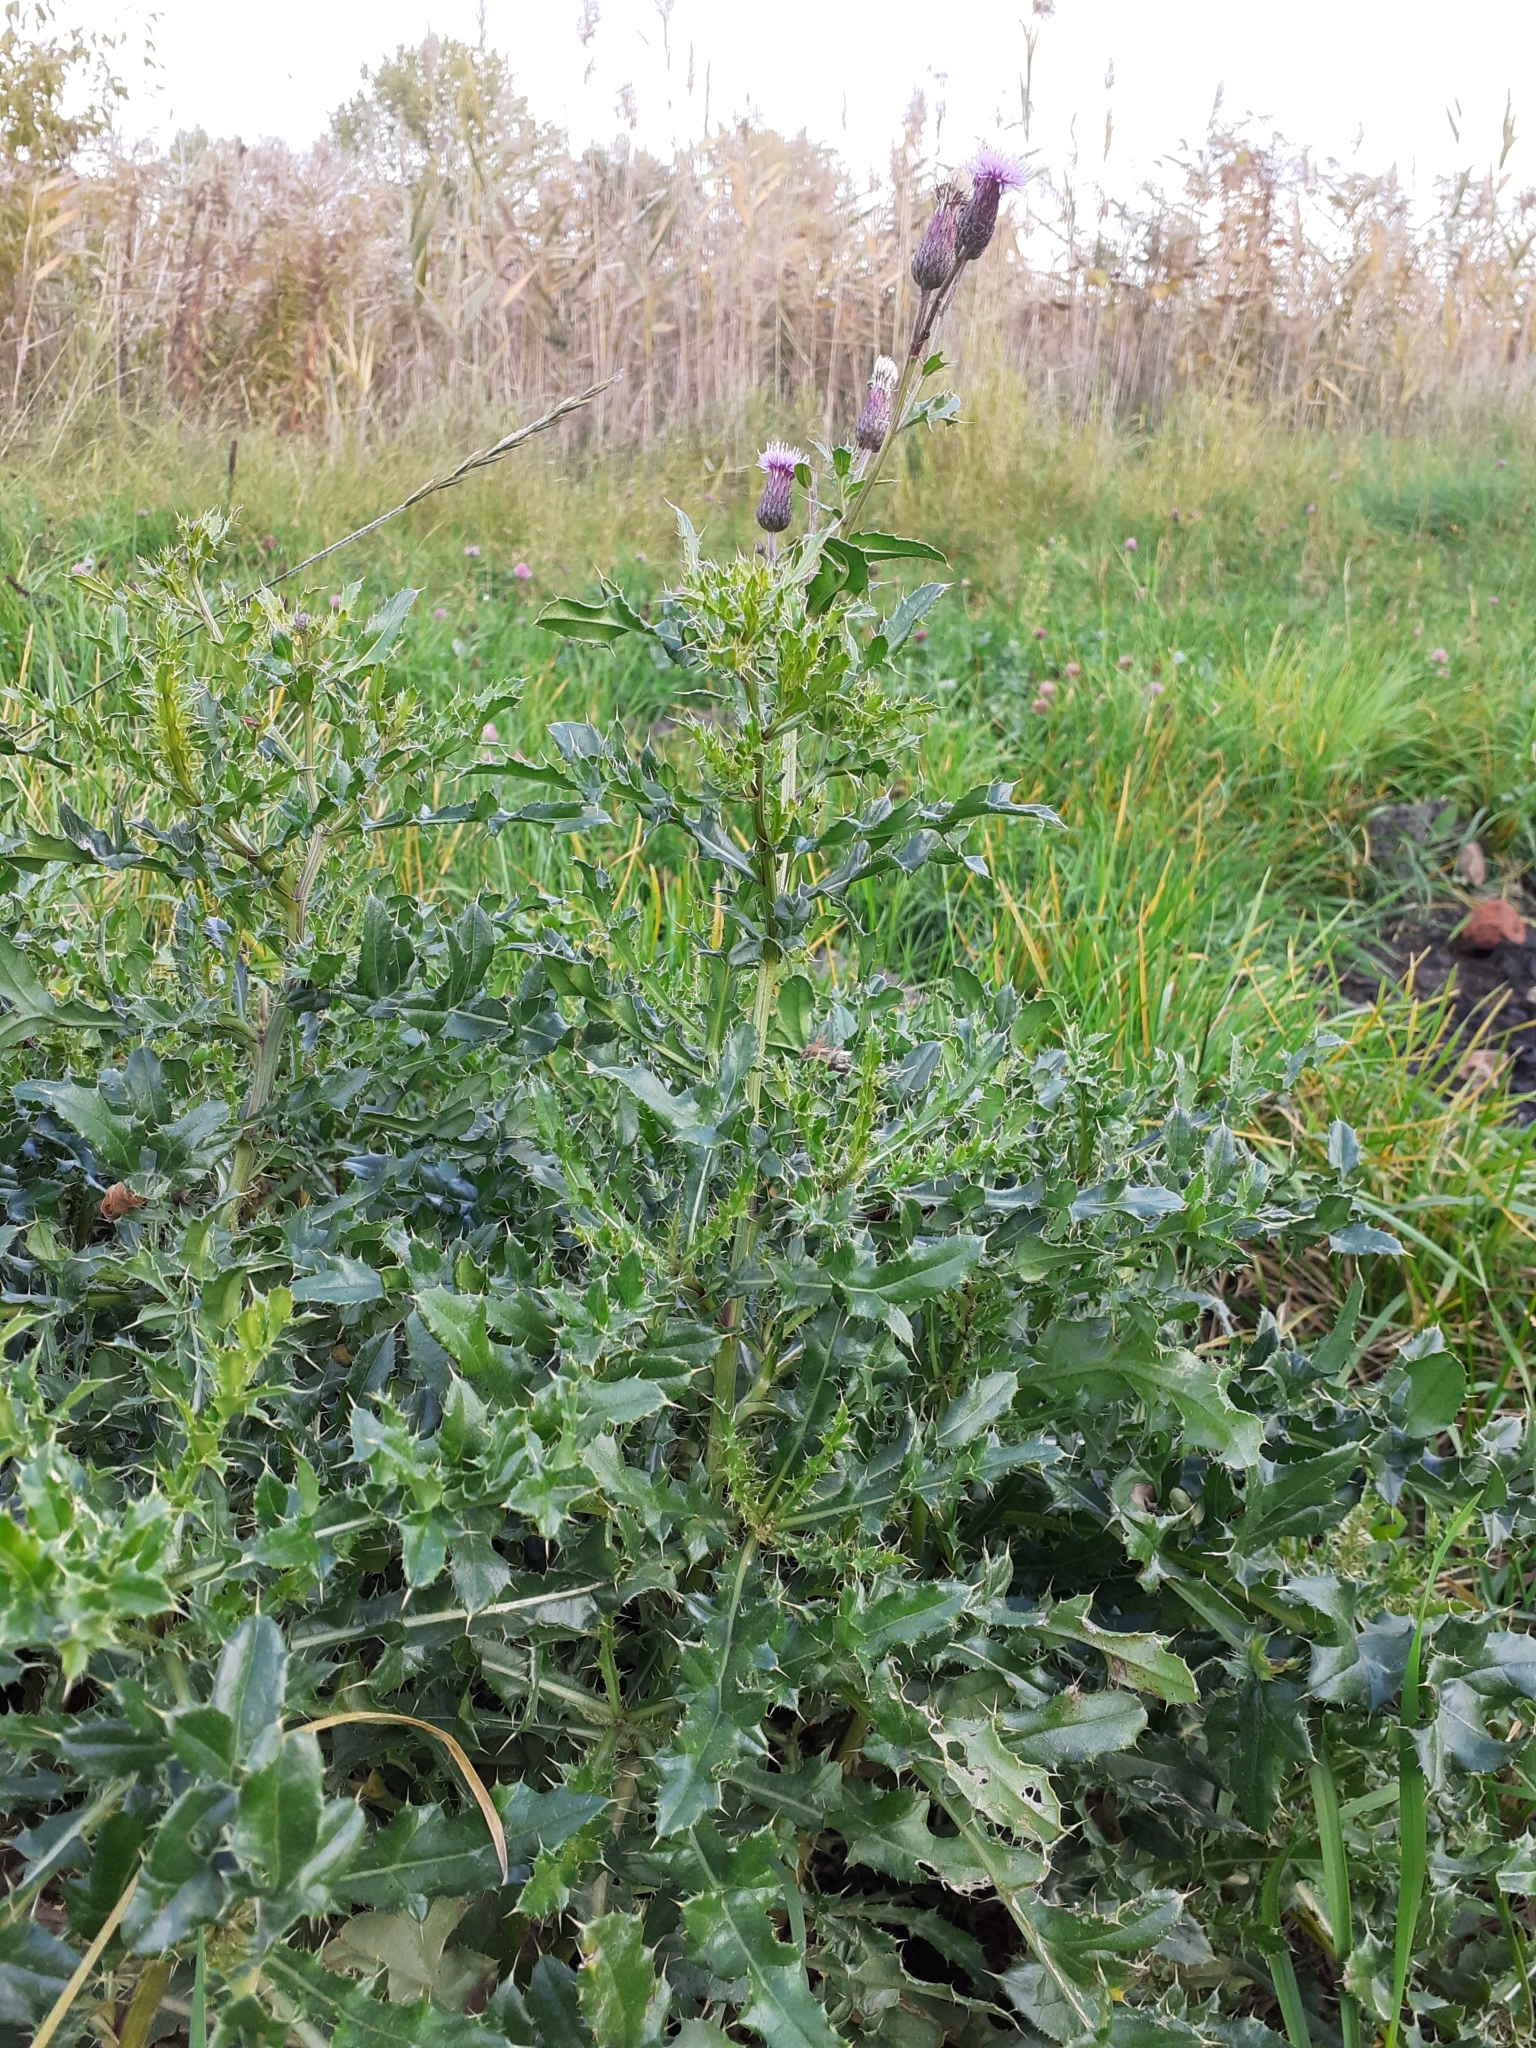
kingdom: Plantae
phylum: Tracheophyta
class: Magnoliopsida
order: Asterales
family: Asteraceae
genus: Cirsium
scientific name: Cirsium arvense
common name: Creeping thistle
